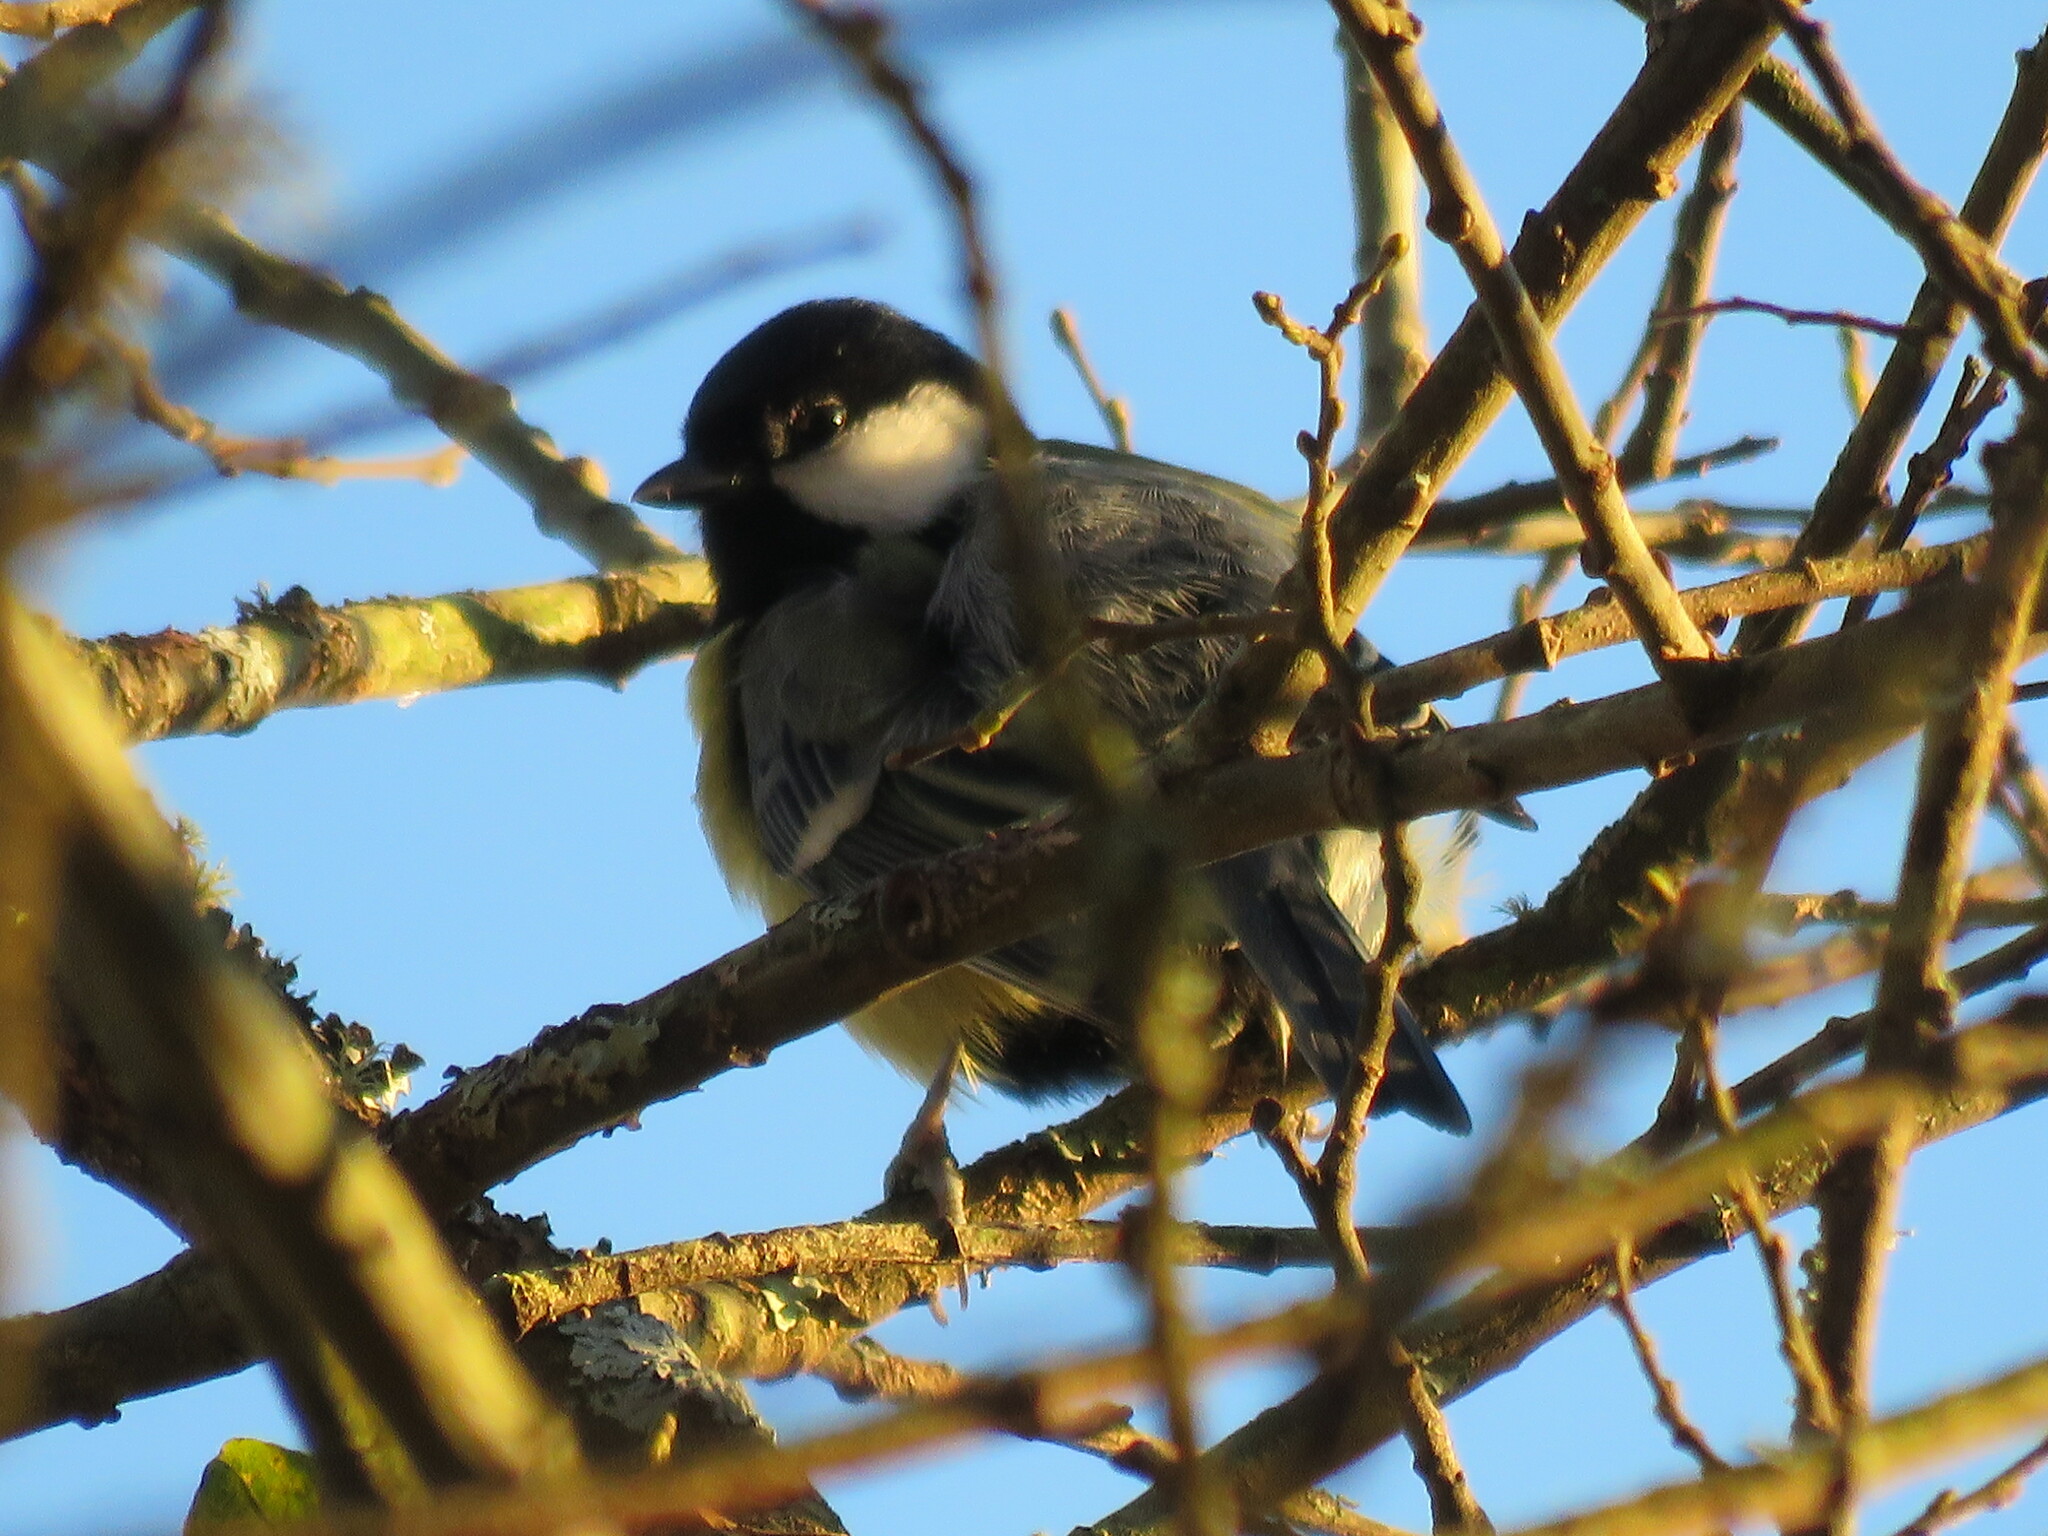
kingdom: Animalia
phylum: Chordata
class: Aves
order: Passeriformes
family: Paridae
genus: Parus
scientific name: Parus major
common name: Great tit
